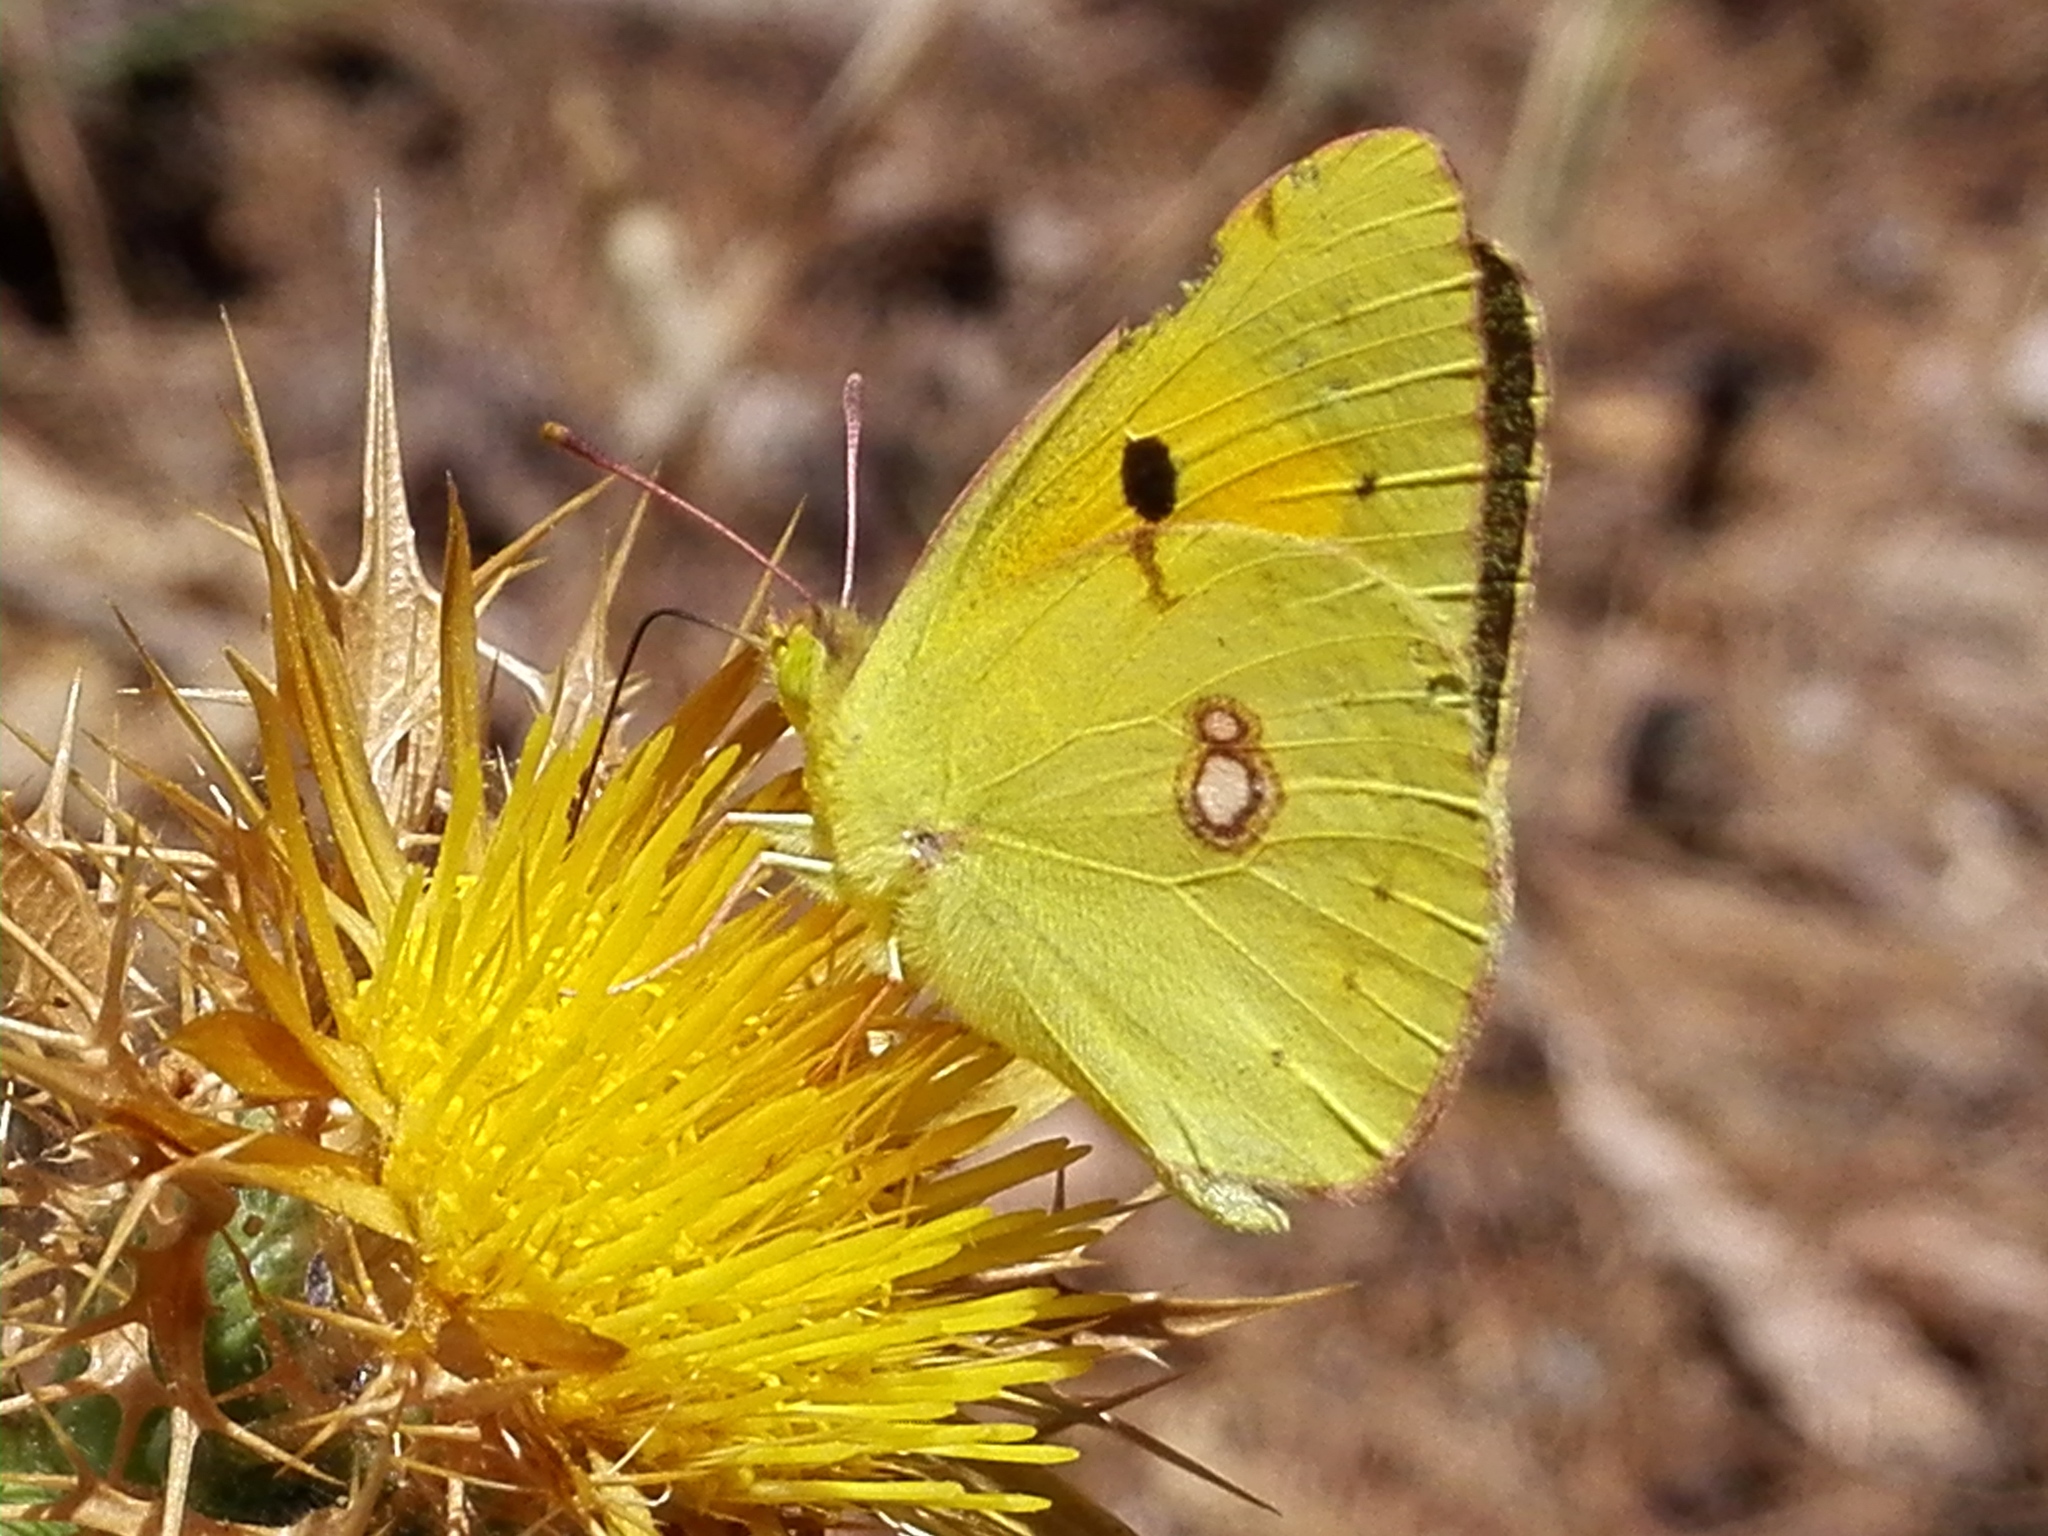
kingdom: Animalia
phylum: Arthropoda
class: Insecta
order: Lepidoptera
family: Pieridae
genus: Colias
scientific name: Colias croceus
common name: Clouded yellow
